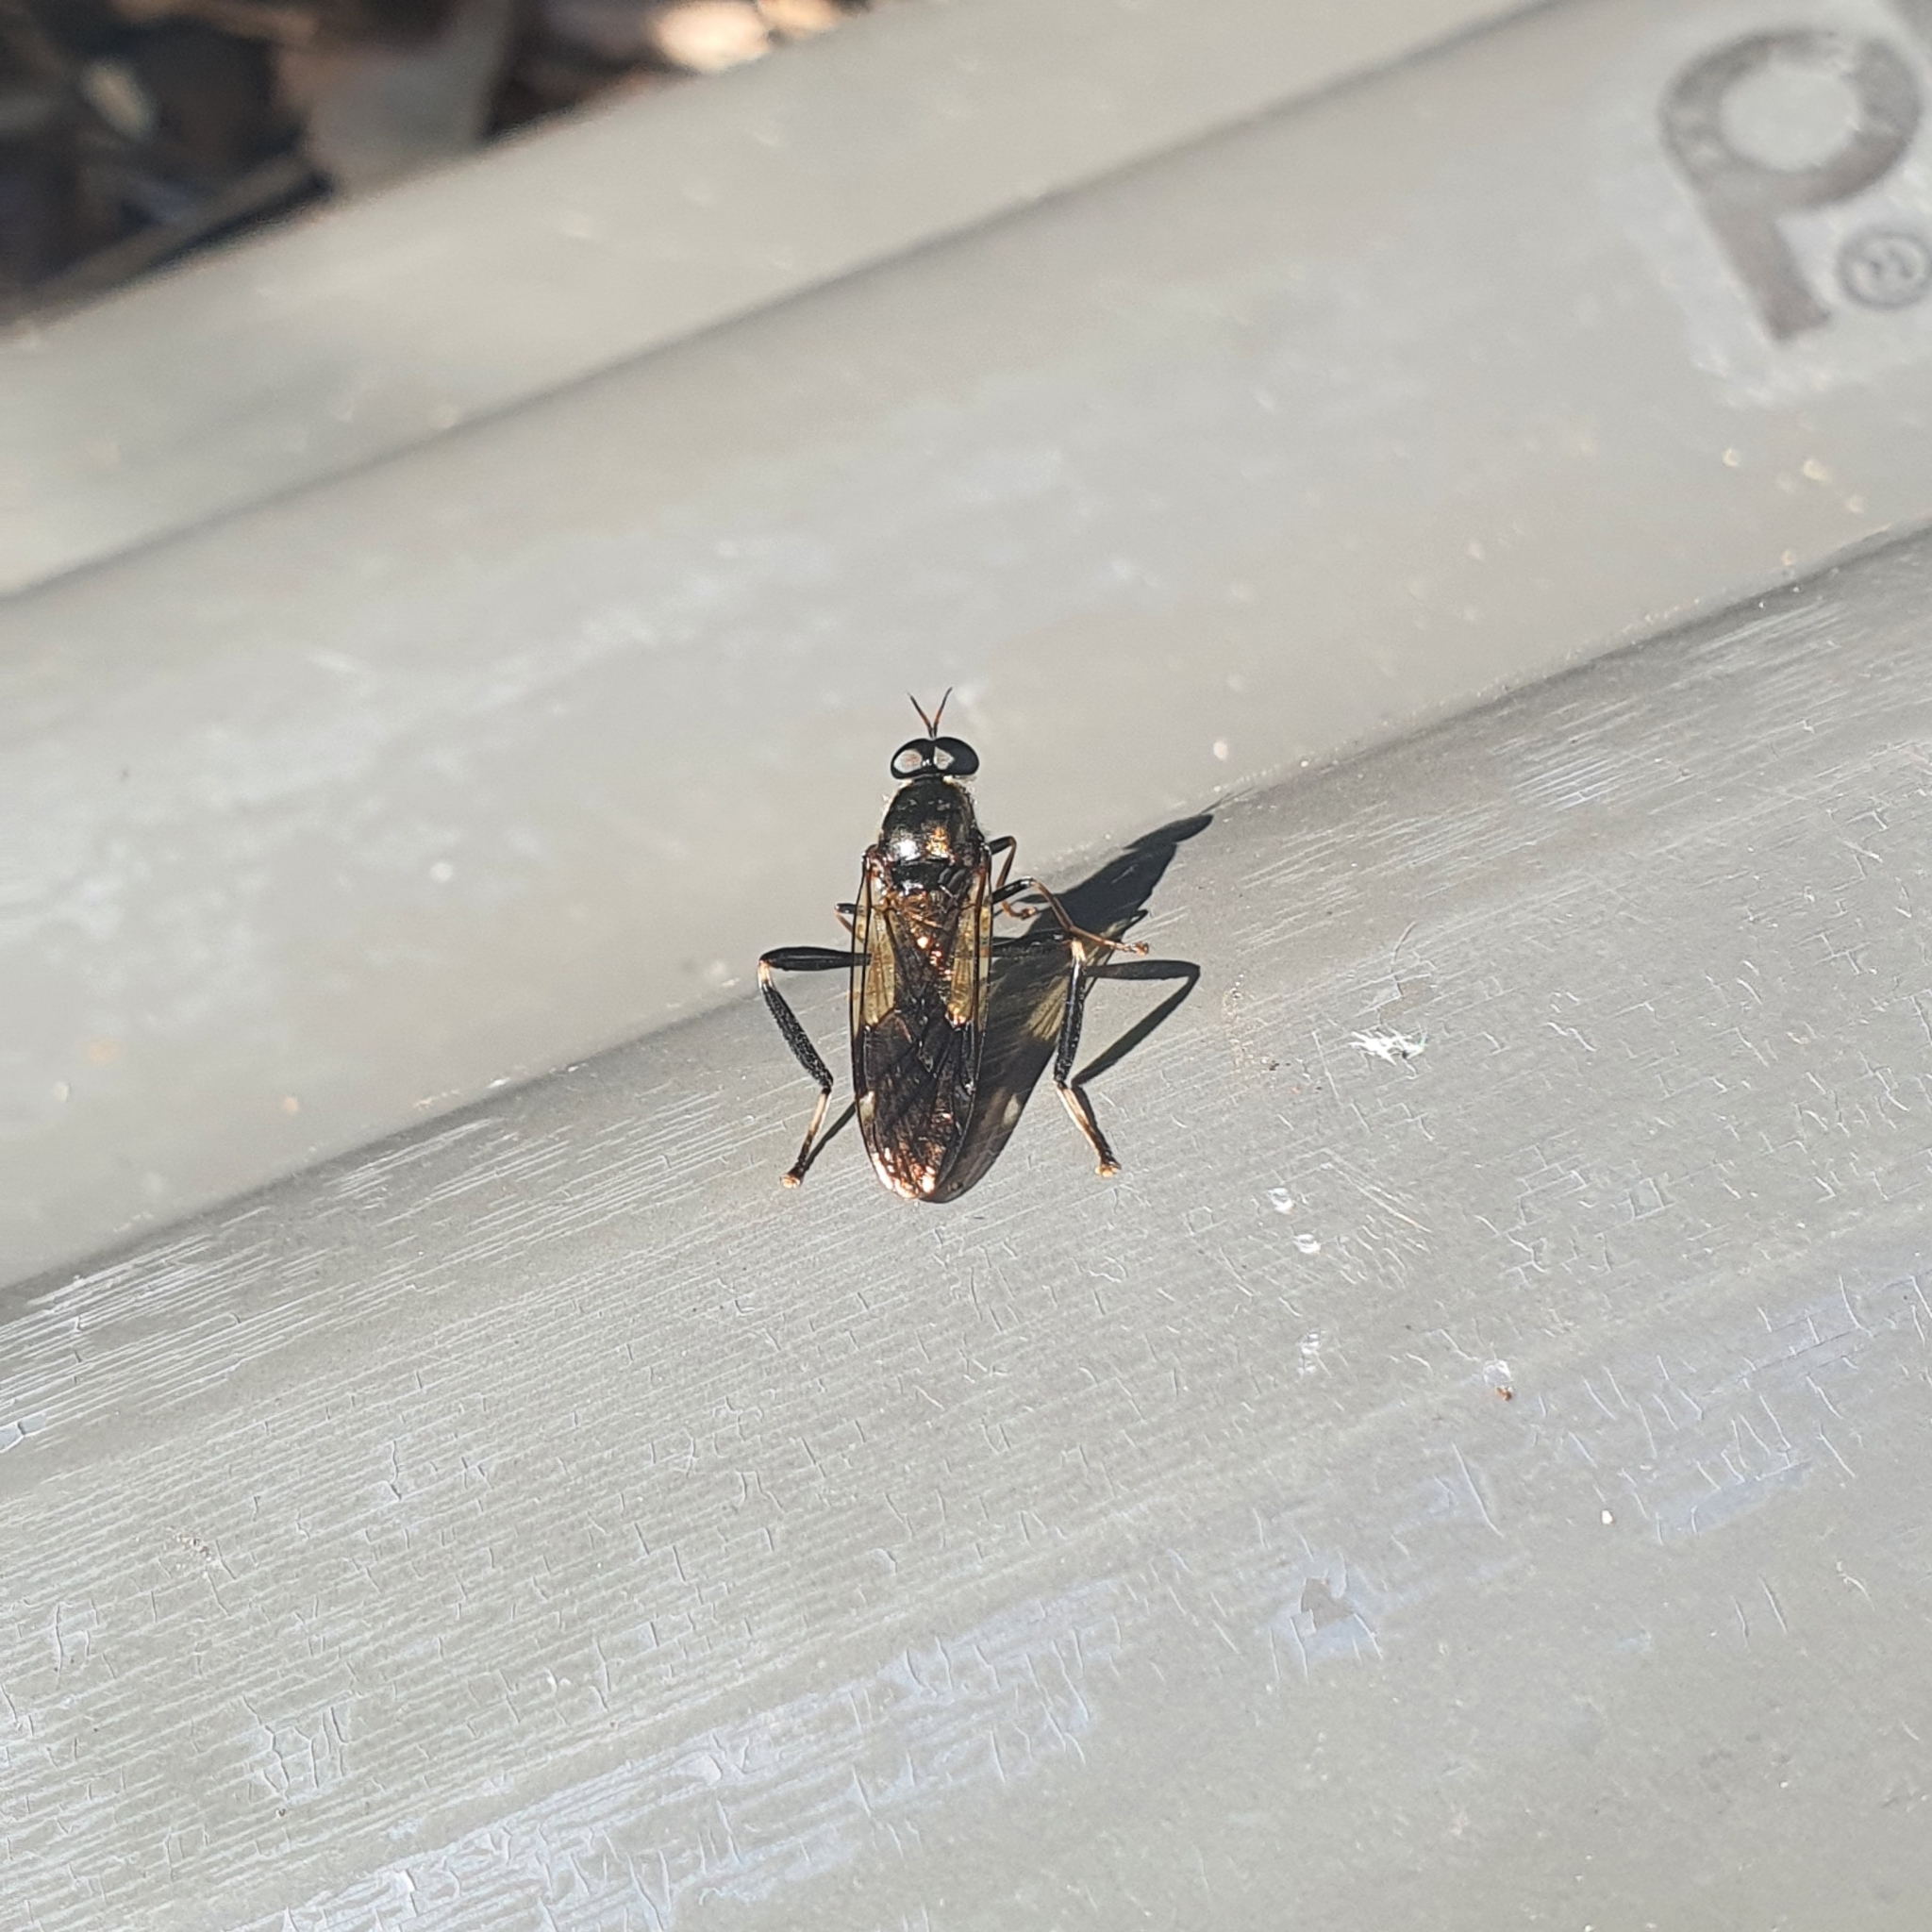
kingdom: Animalia
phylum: Arthropoda
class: Insecta
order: Diptera
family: Stratiomyidae
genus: Exaireta
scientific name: Exaireta spinigera
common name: Blue soldier fly
